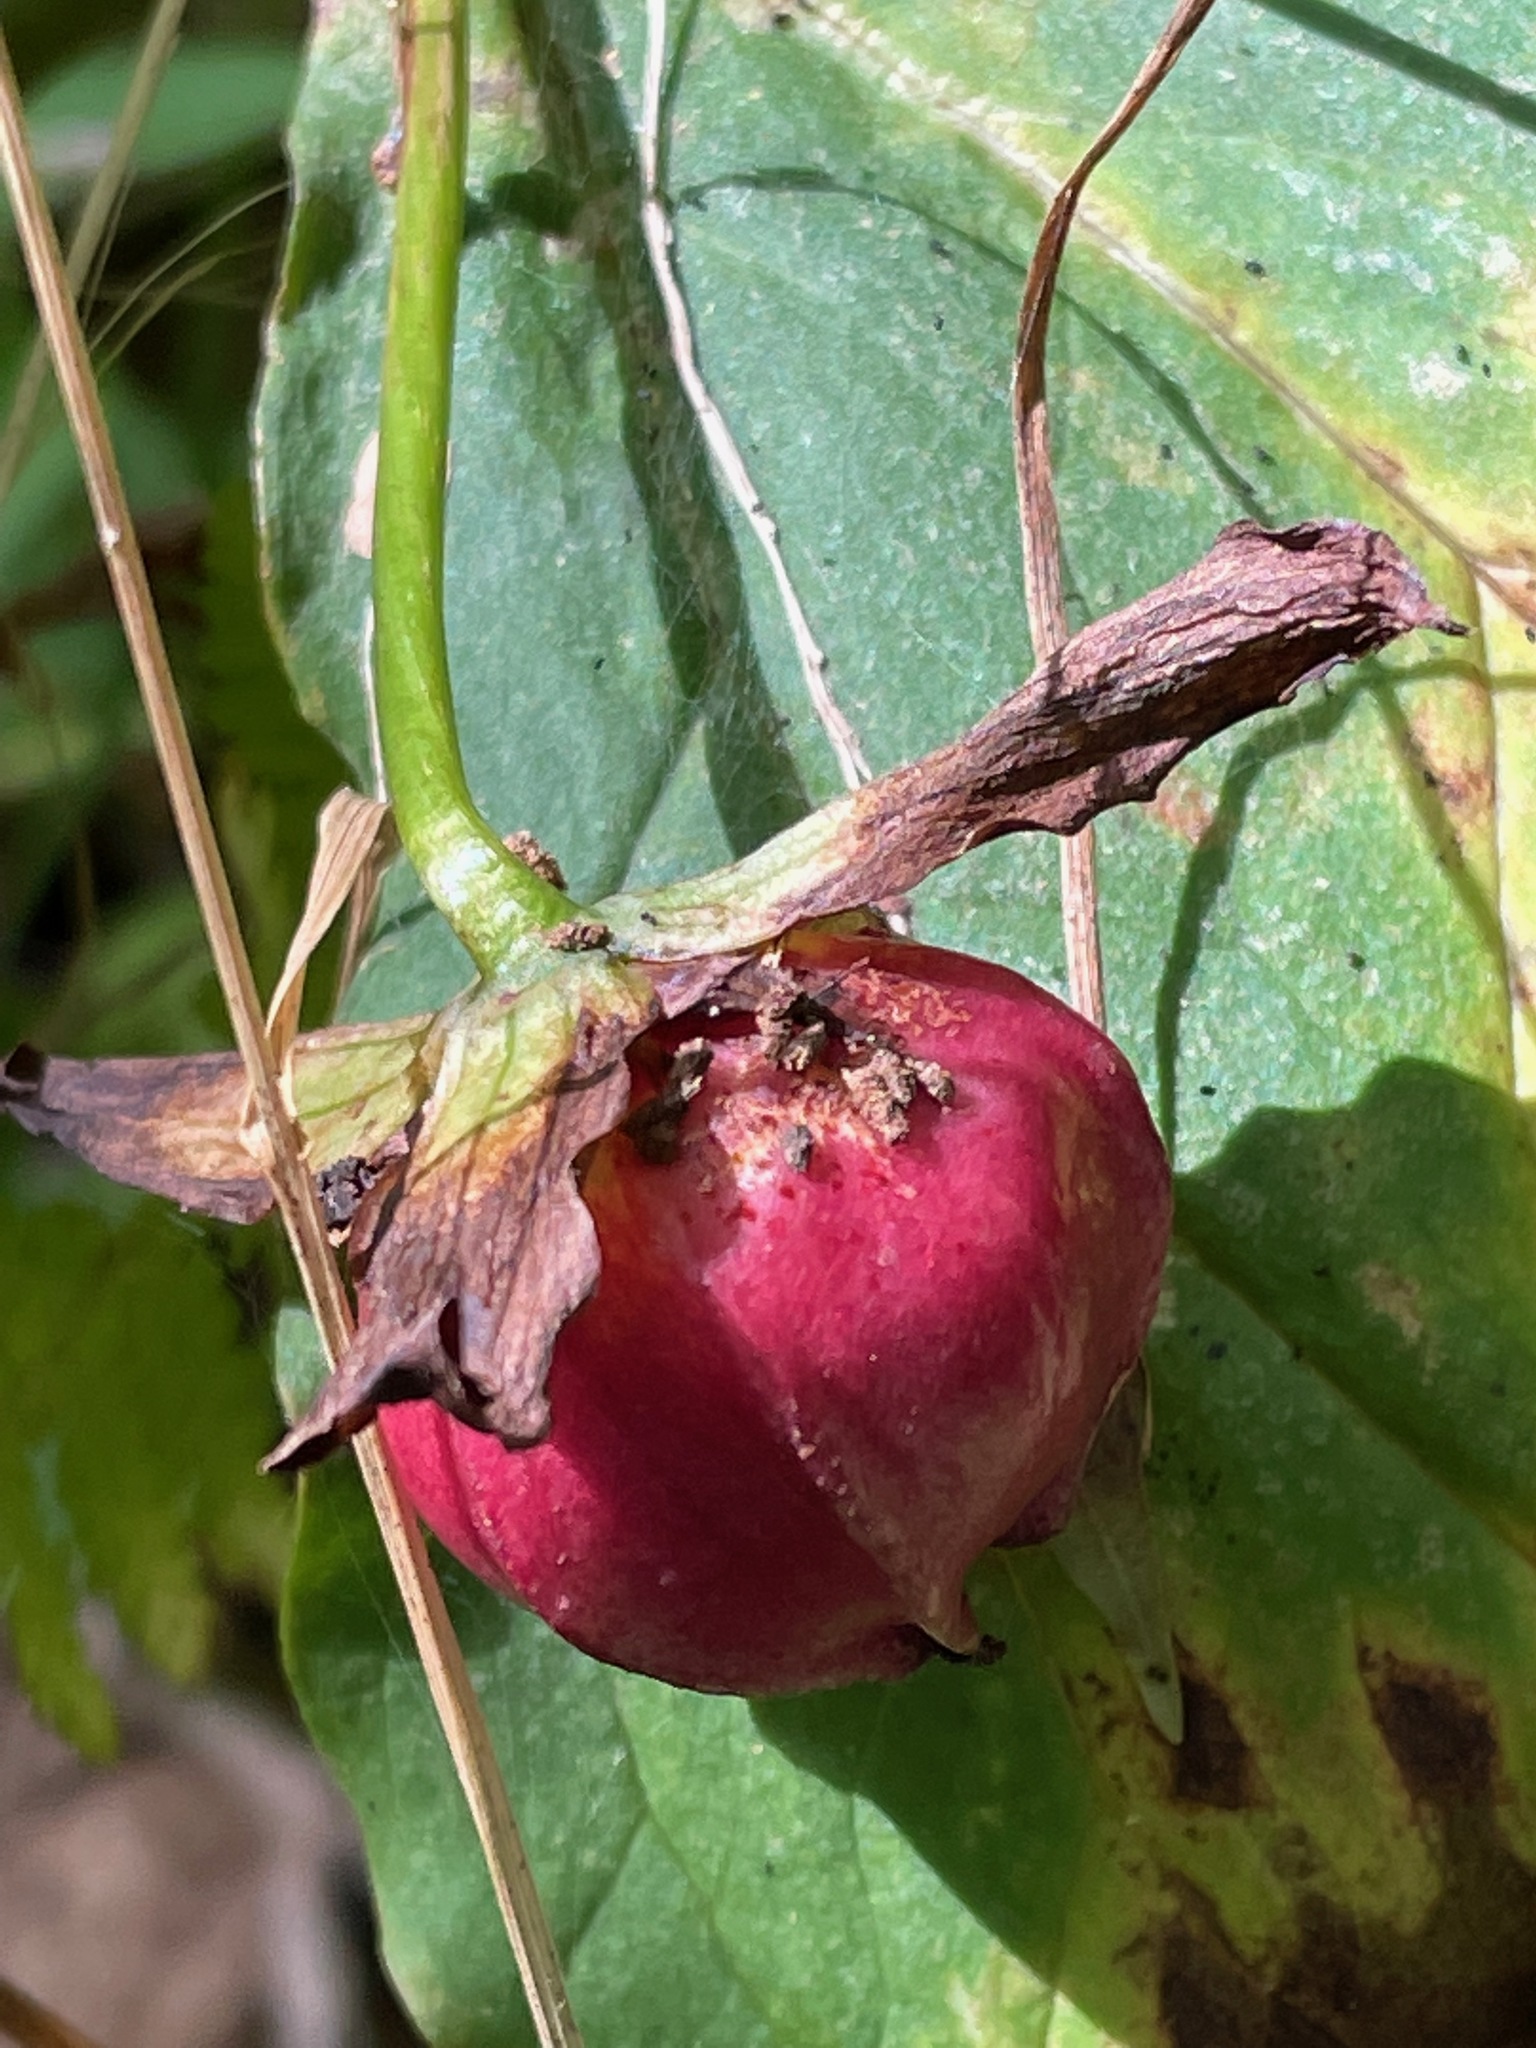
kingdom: Plantae
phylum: Tracheophyta
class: Liliopsida
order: Liliales
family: Melanthiaceae
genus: Trillium
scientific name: Trillium erectum
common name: Purple trillium
